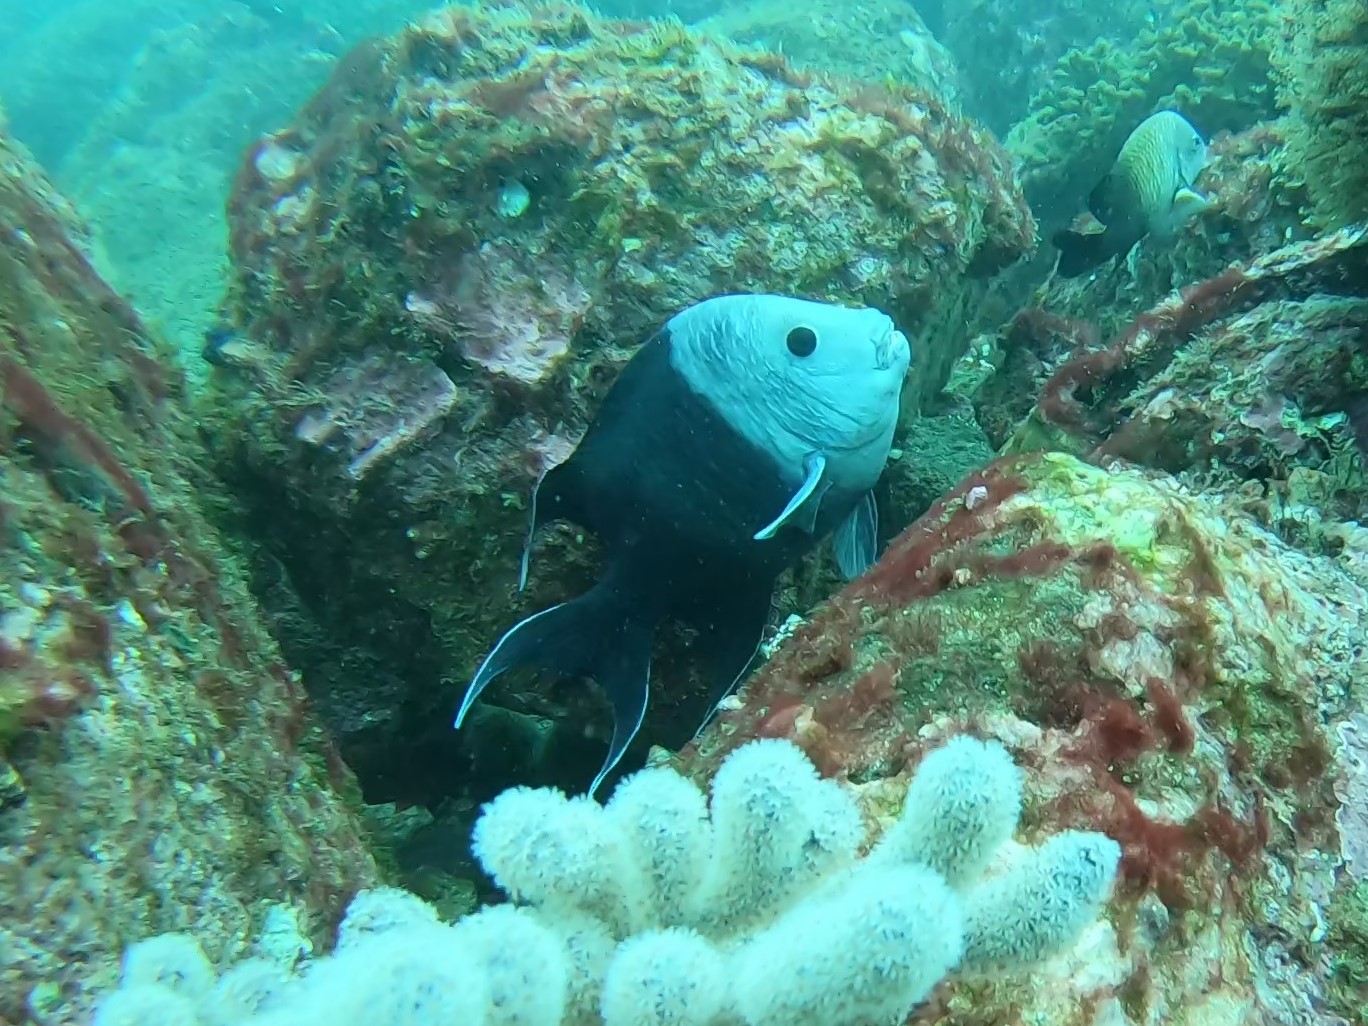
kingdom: Animalia
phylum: Chordata
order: Perciformes
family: Pomacentridae
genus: Microspathodon
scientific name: Microspathodon dorsalis
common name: Giant damselfish
